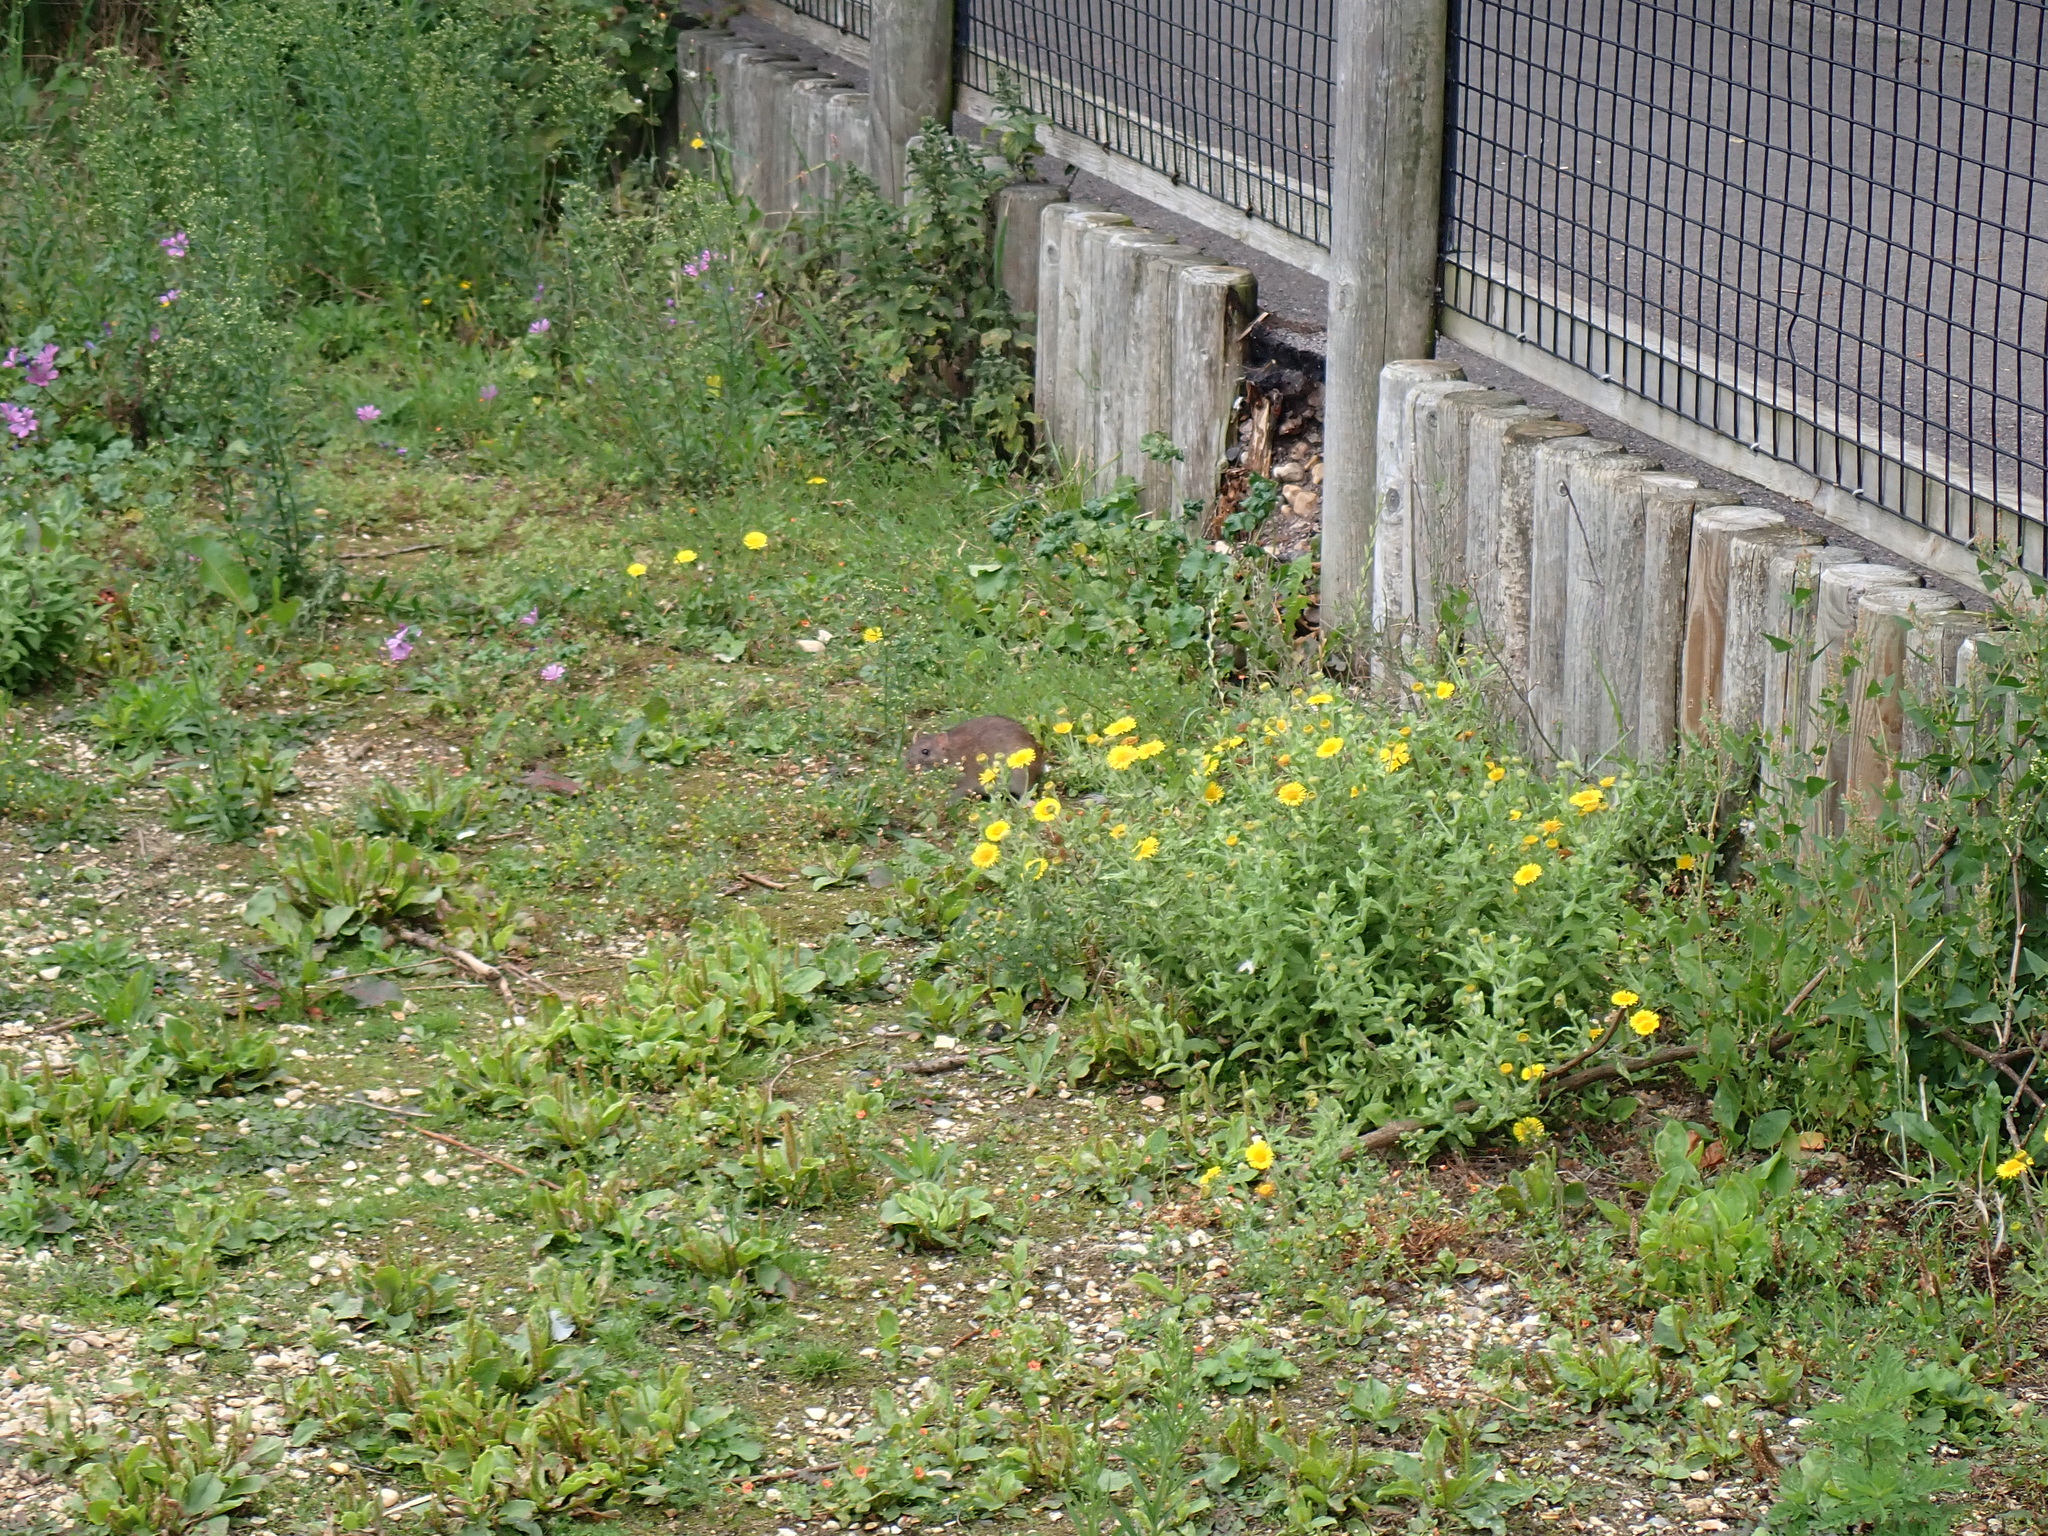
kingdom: Plantae
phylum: Tracheophyta
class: Magnoliopsida
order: Asterales
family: Asteraceae
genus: Pulicaria
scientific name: Pulicaria dysenterica
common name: Common fleabane
